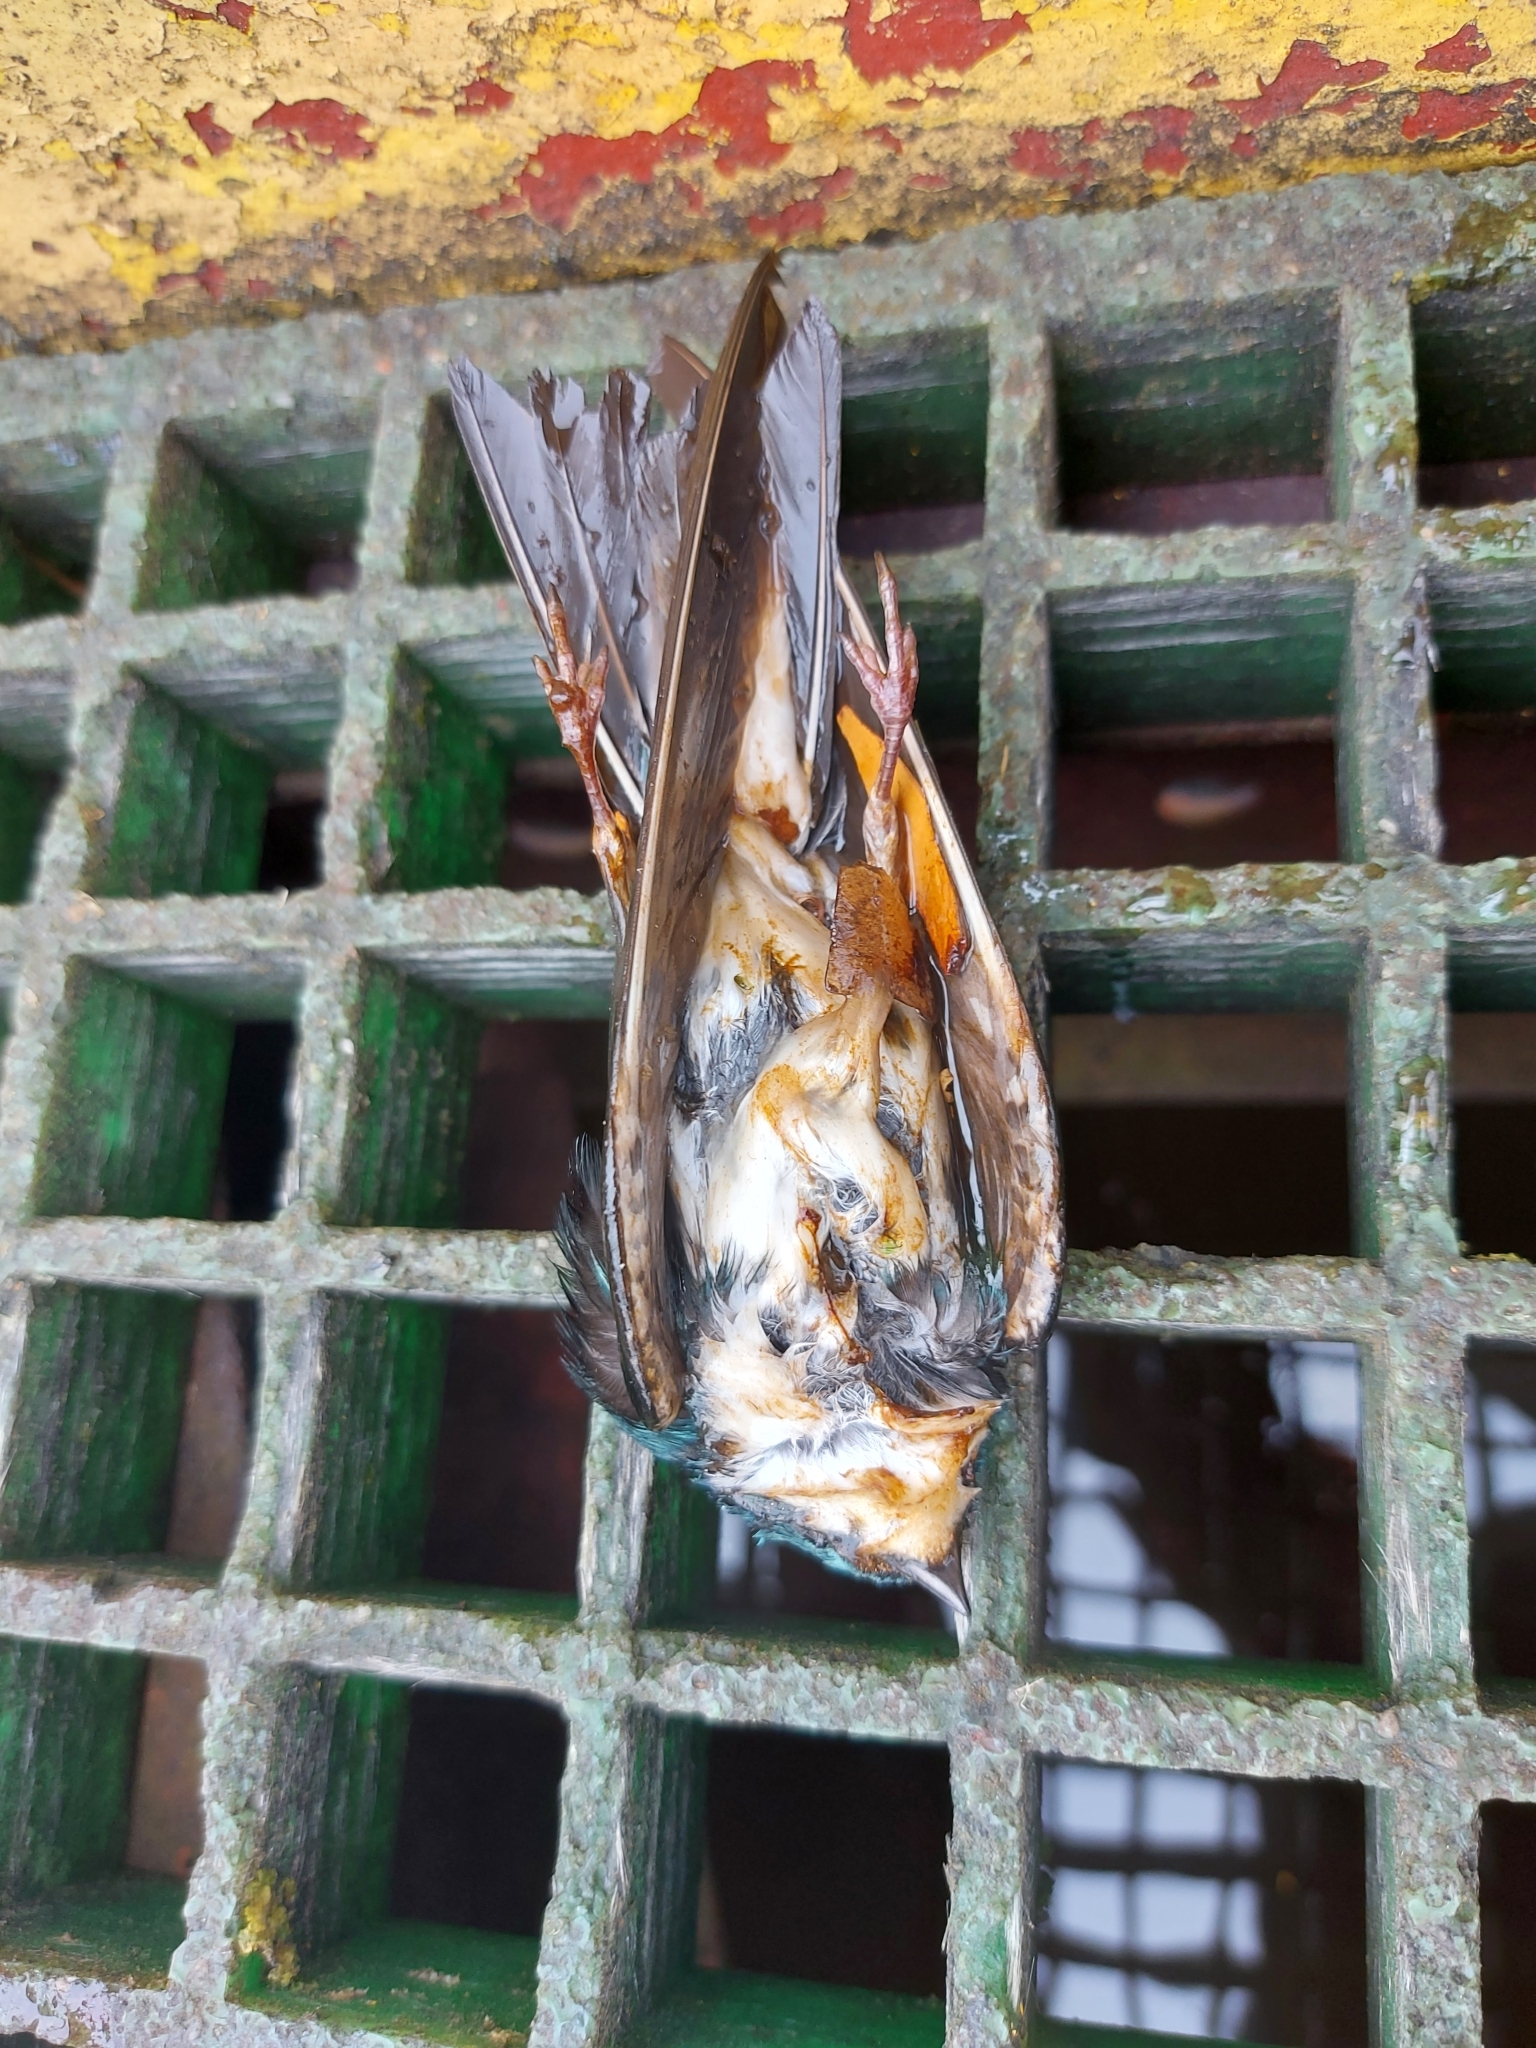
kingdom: Animalia
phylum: Chordata
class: Aves
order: Passeriformes
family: Hirundinidae
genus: Tachycineta
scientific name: Tachycineta bicolor
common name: Tree swallow
